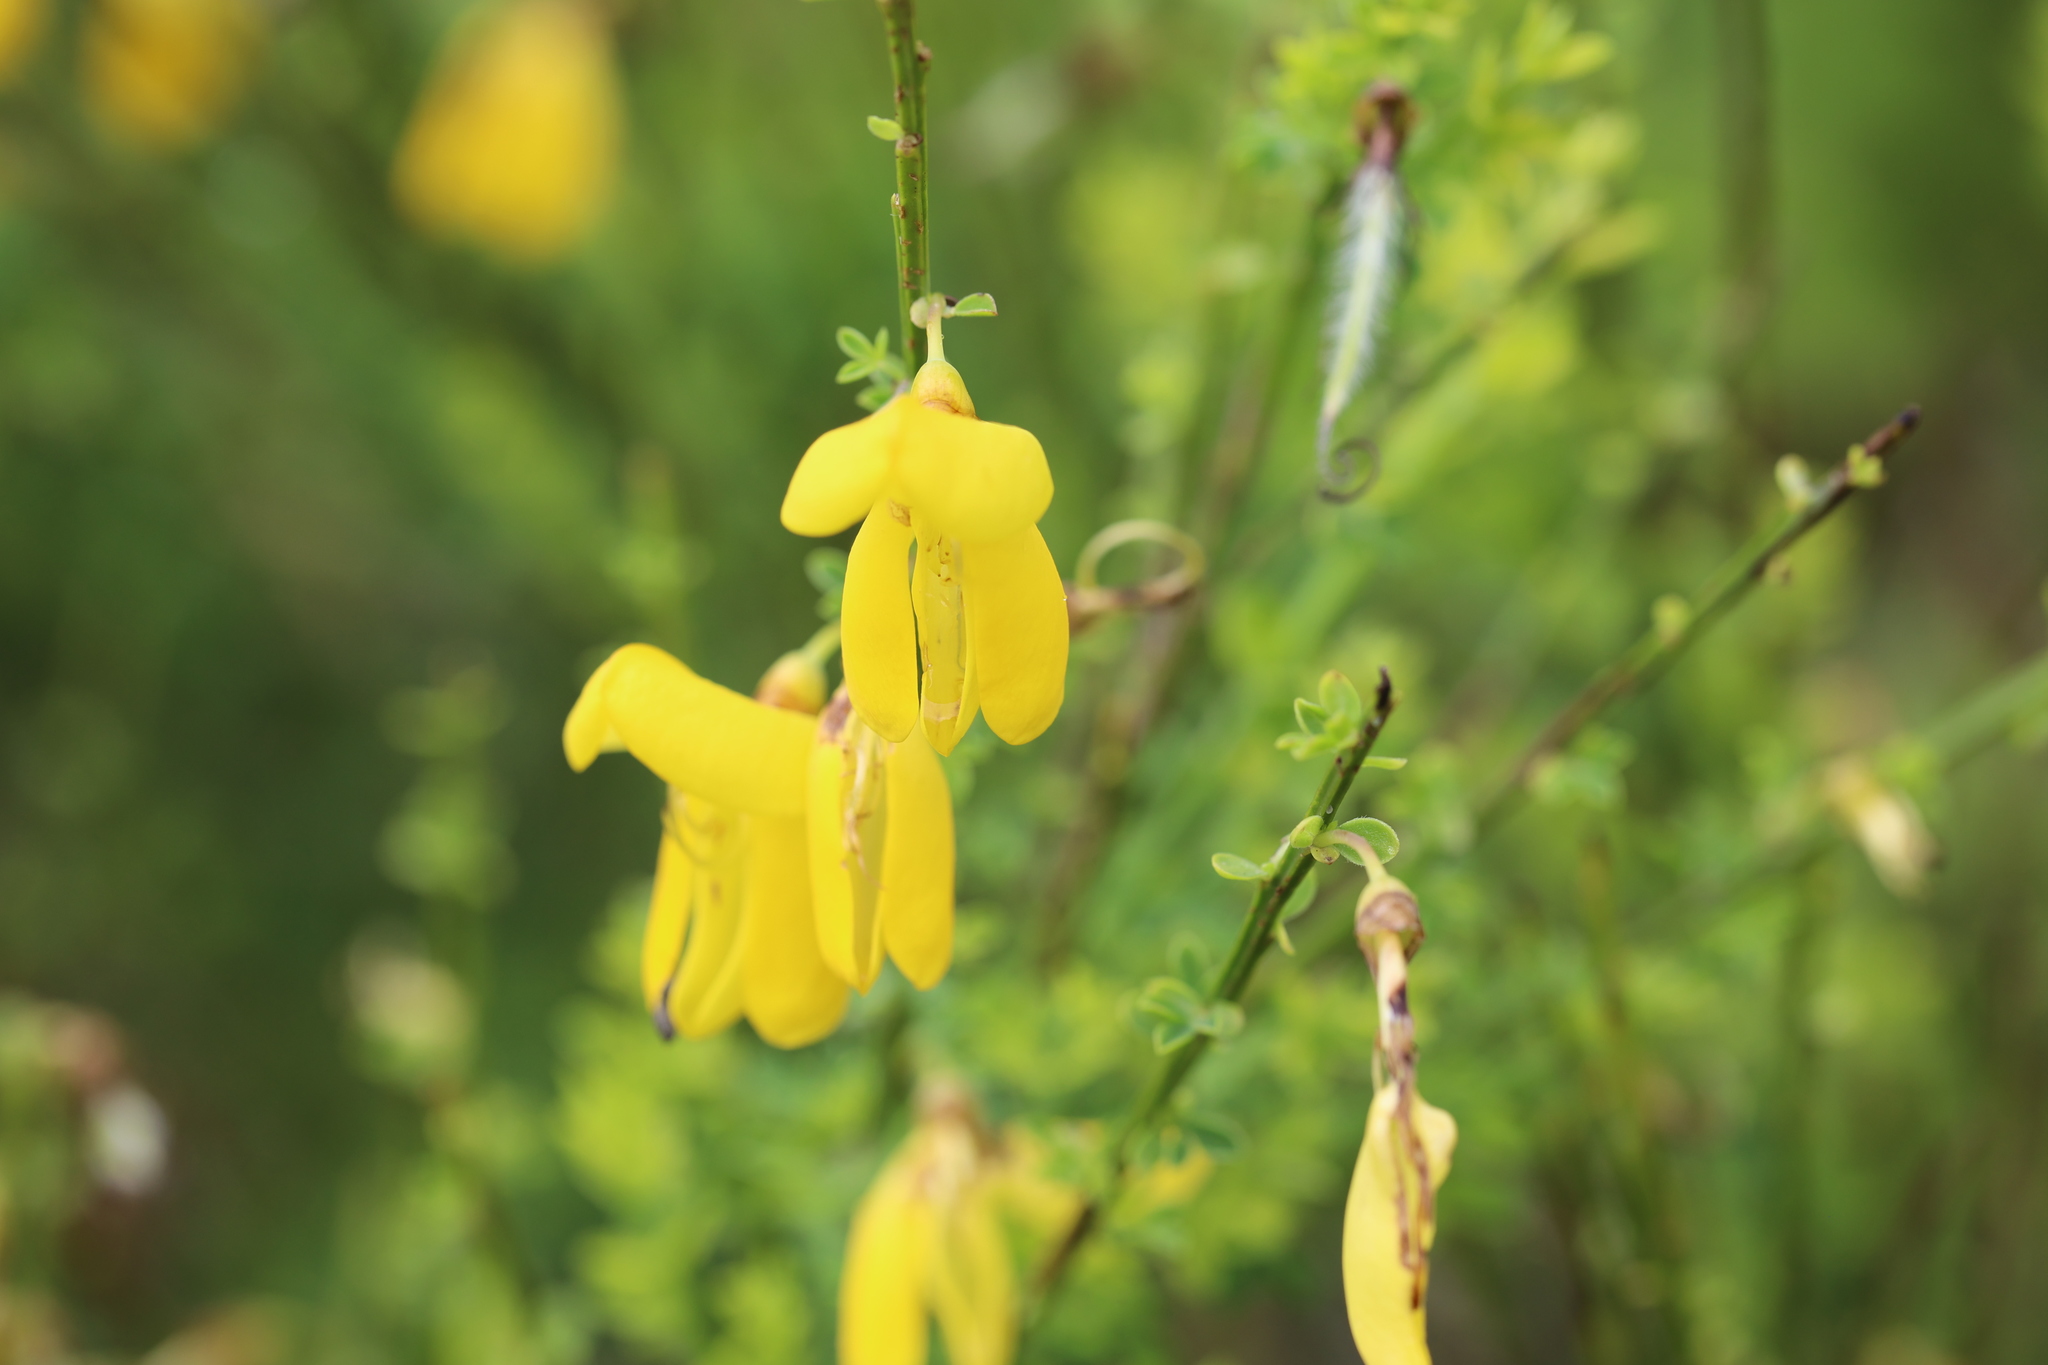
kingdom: Plantae
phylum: Tracheophyta
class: Magnoliopsida
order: Fabales
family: Fabaceae
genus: Cytisus
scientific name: Cytisus scoparius
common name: Scotch broom
